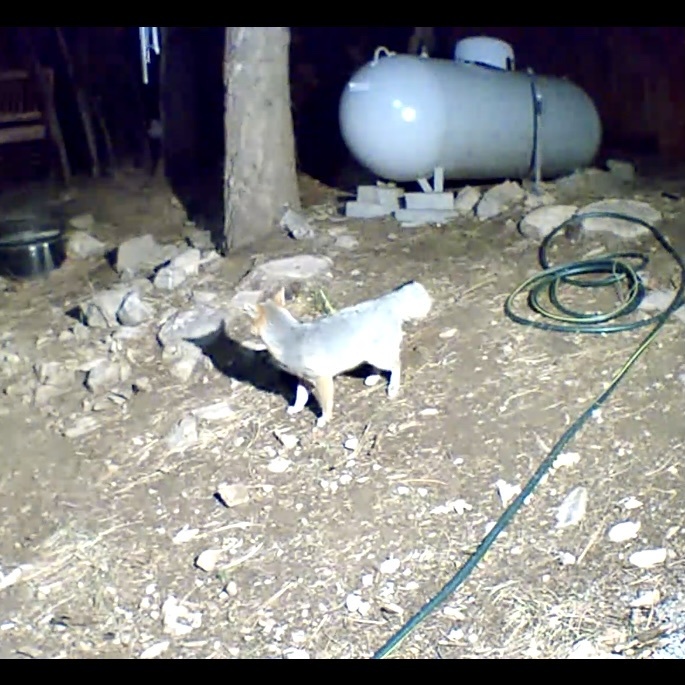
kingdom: Animalia
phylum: Chordata
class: Mammalia
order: Carnivora
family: Canidae
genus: Urocyon
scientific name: Urocyon cinereoargenteus
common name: Gray fox
